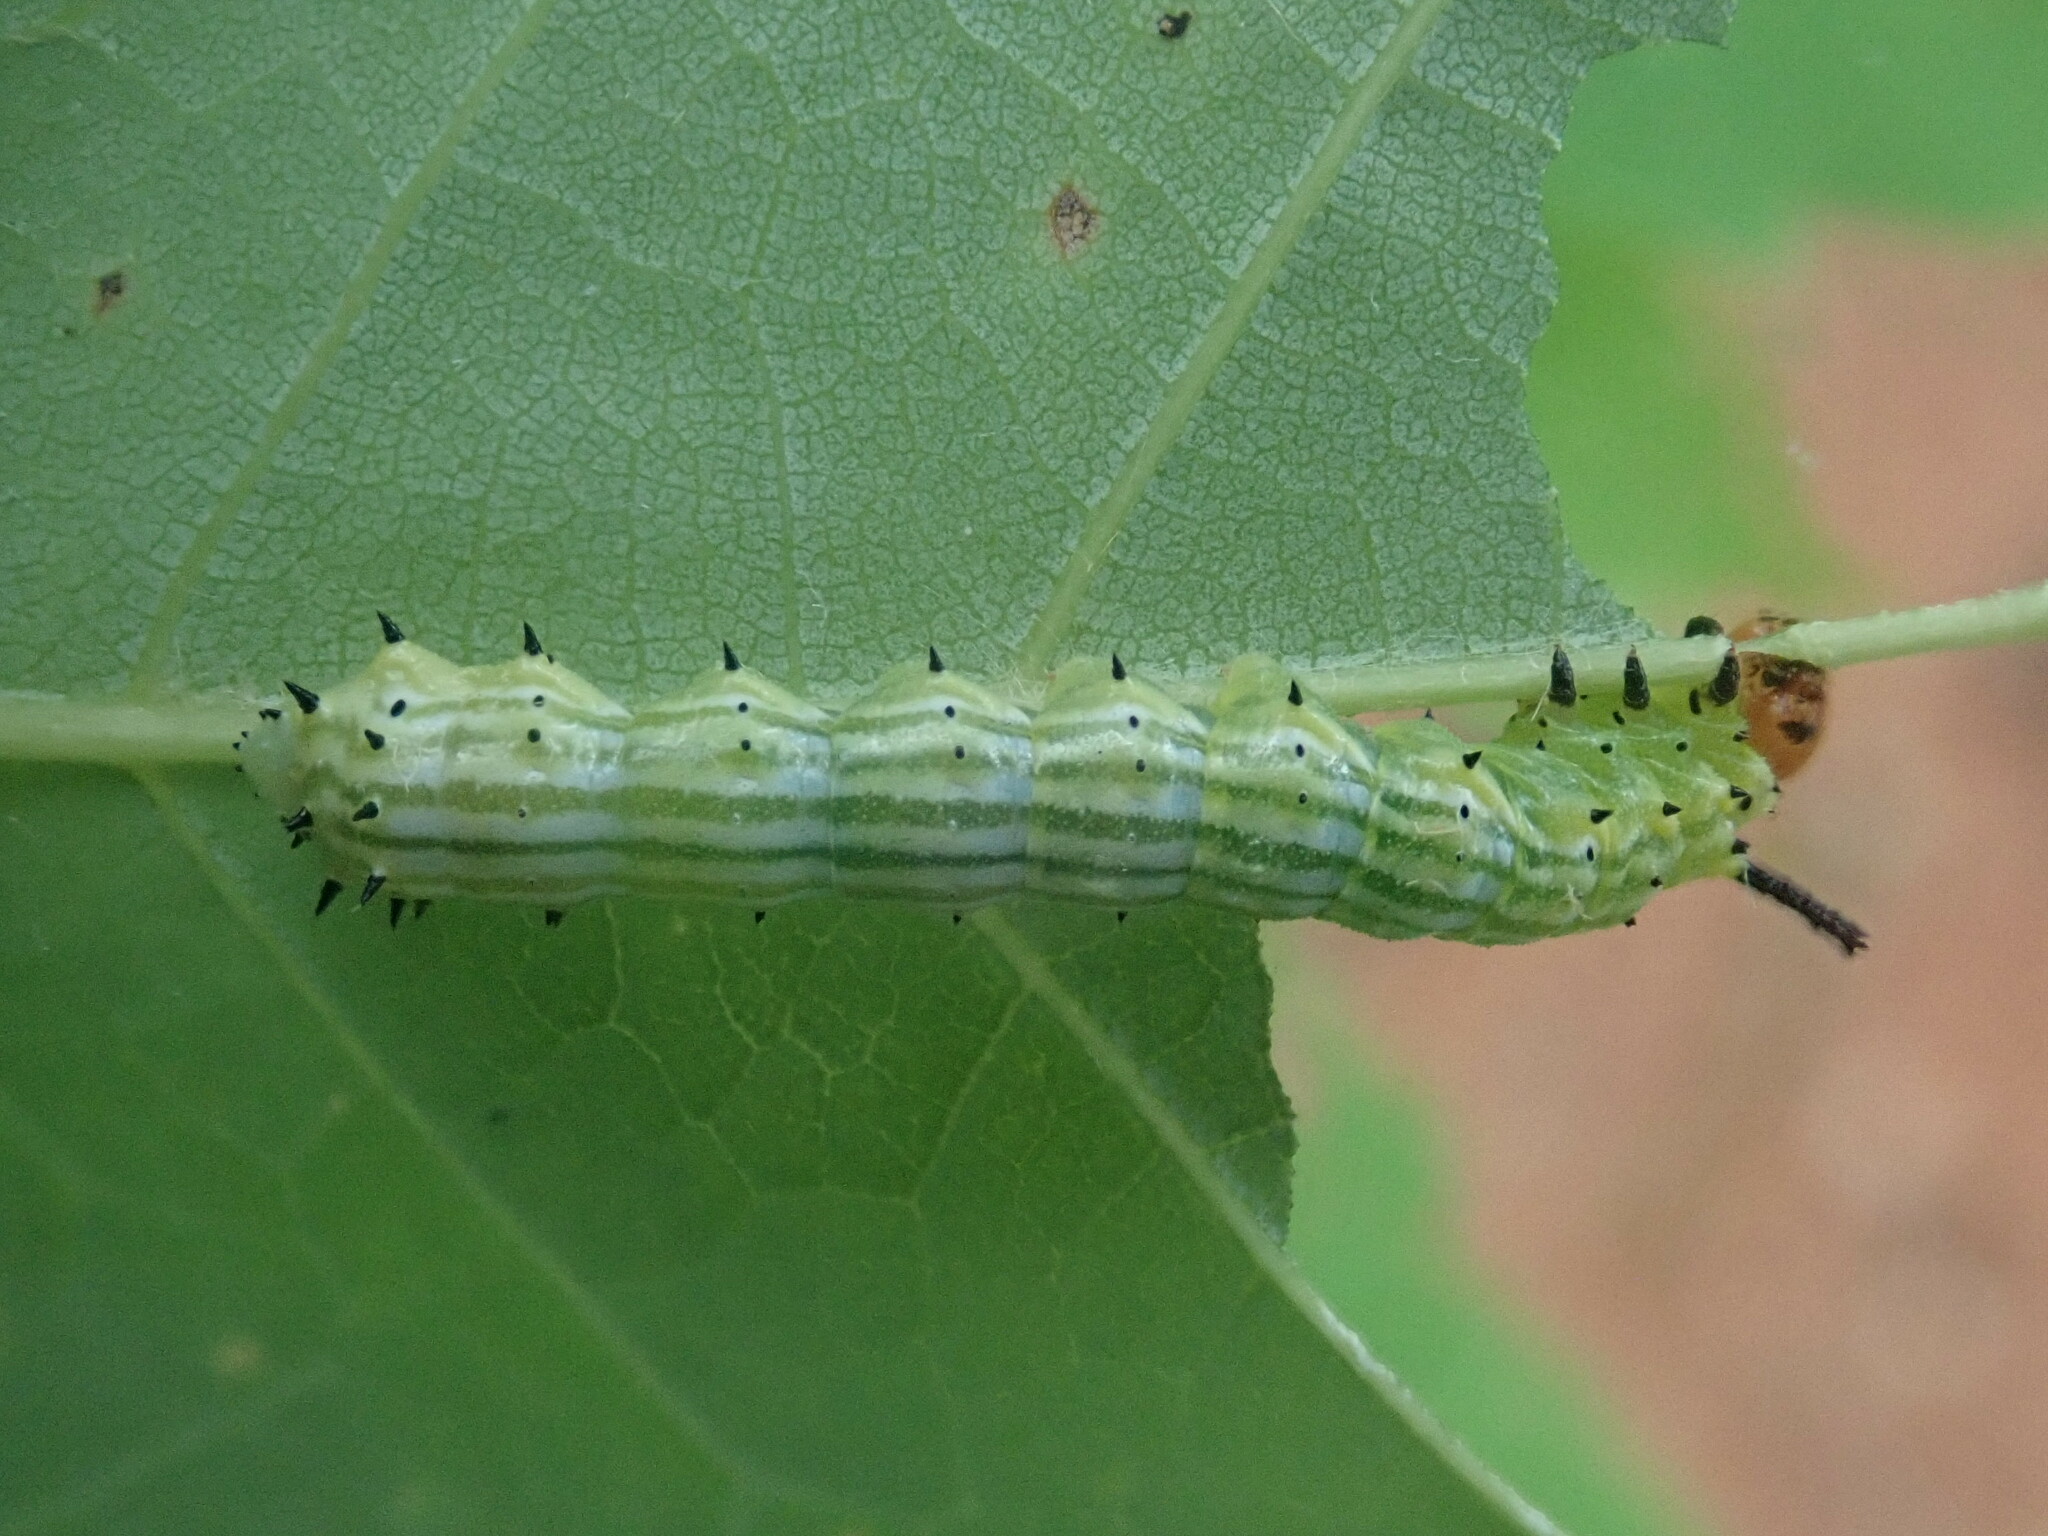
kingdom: Animalia
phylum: Arthropoda
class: Insecta
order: Lepidoptera
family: Saturniidae
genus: Dryocampa
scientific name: Dryocampa rubicunda
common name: Rosy maple moth
